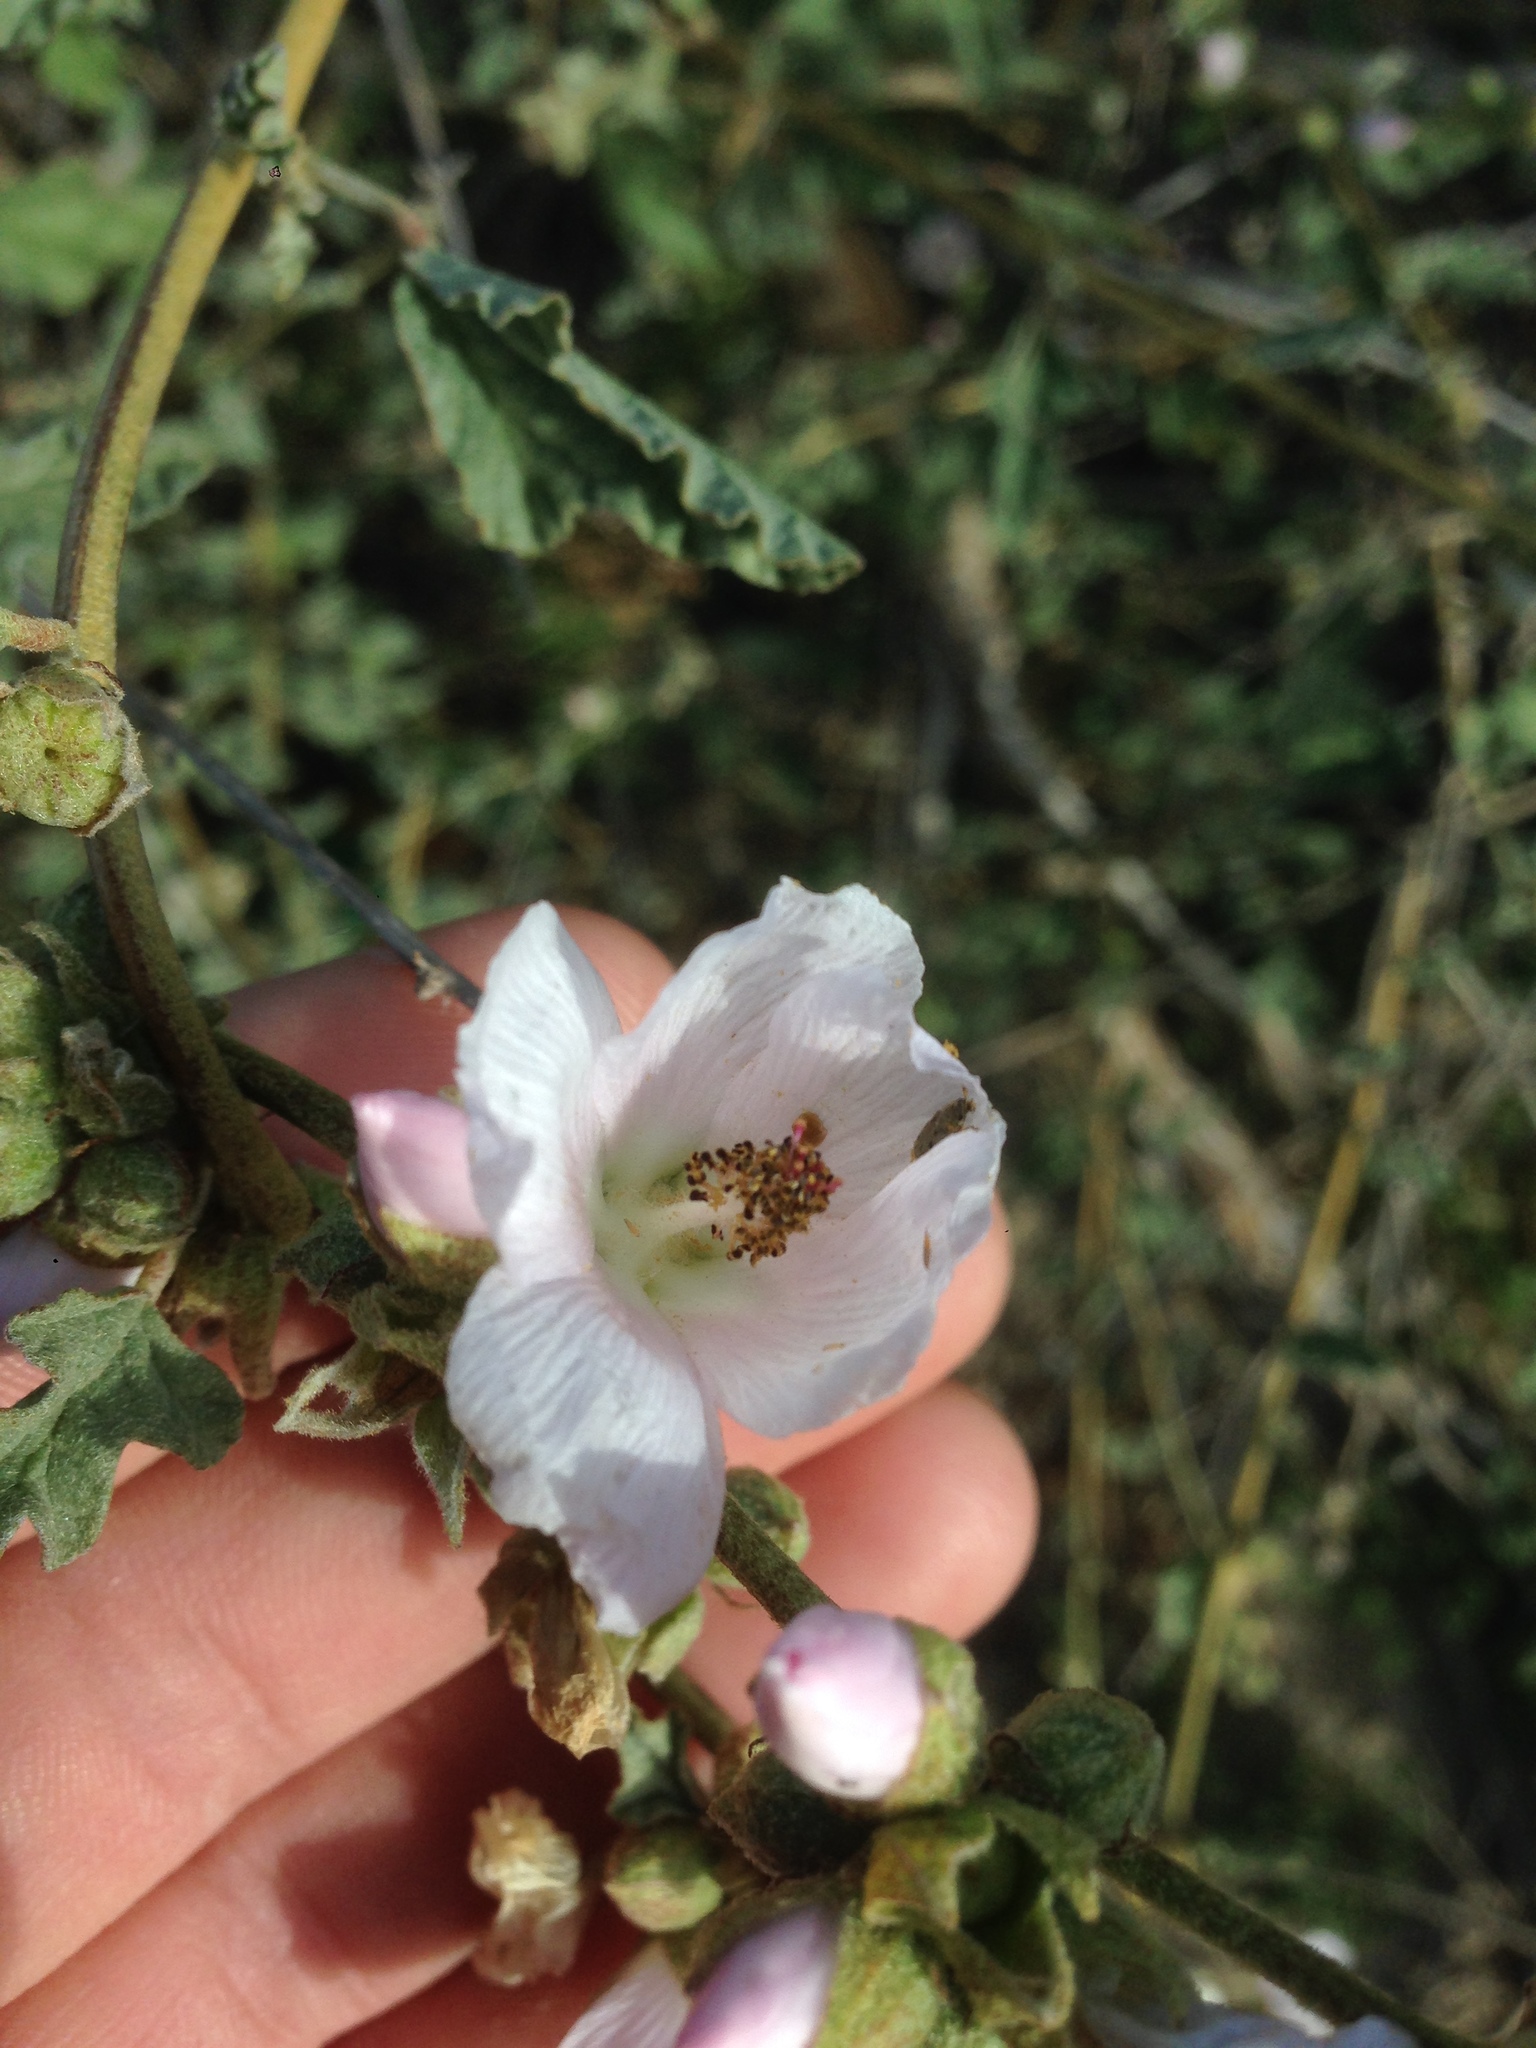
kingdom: Plantae
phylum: Tracheophyta
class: Magnoliopsida
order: Malvales
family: Malvaceae
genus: Sphaeralcea
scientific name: Sphaeralcea fulva
